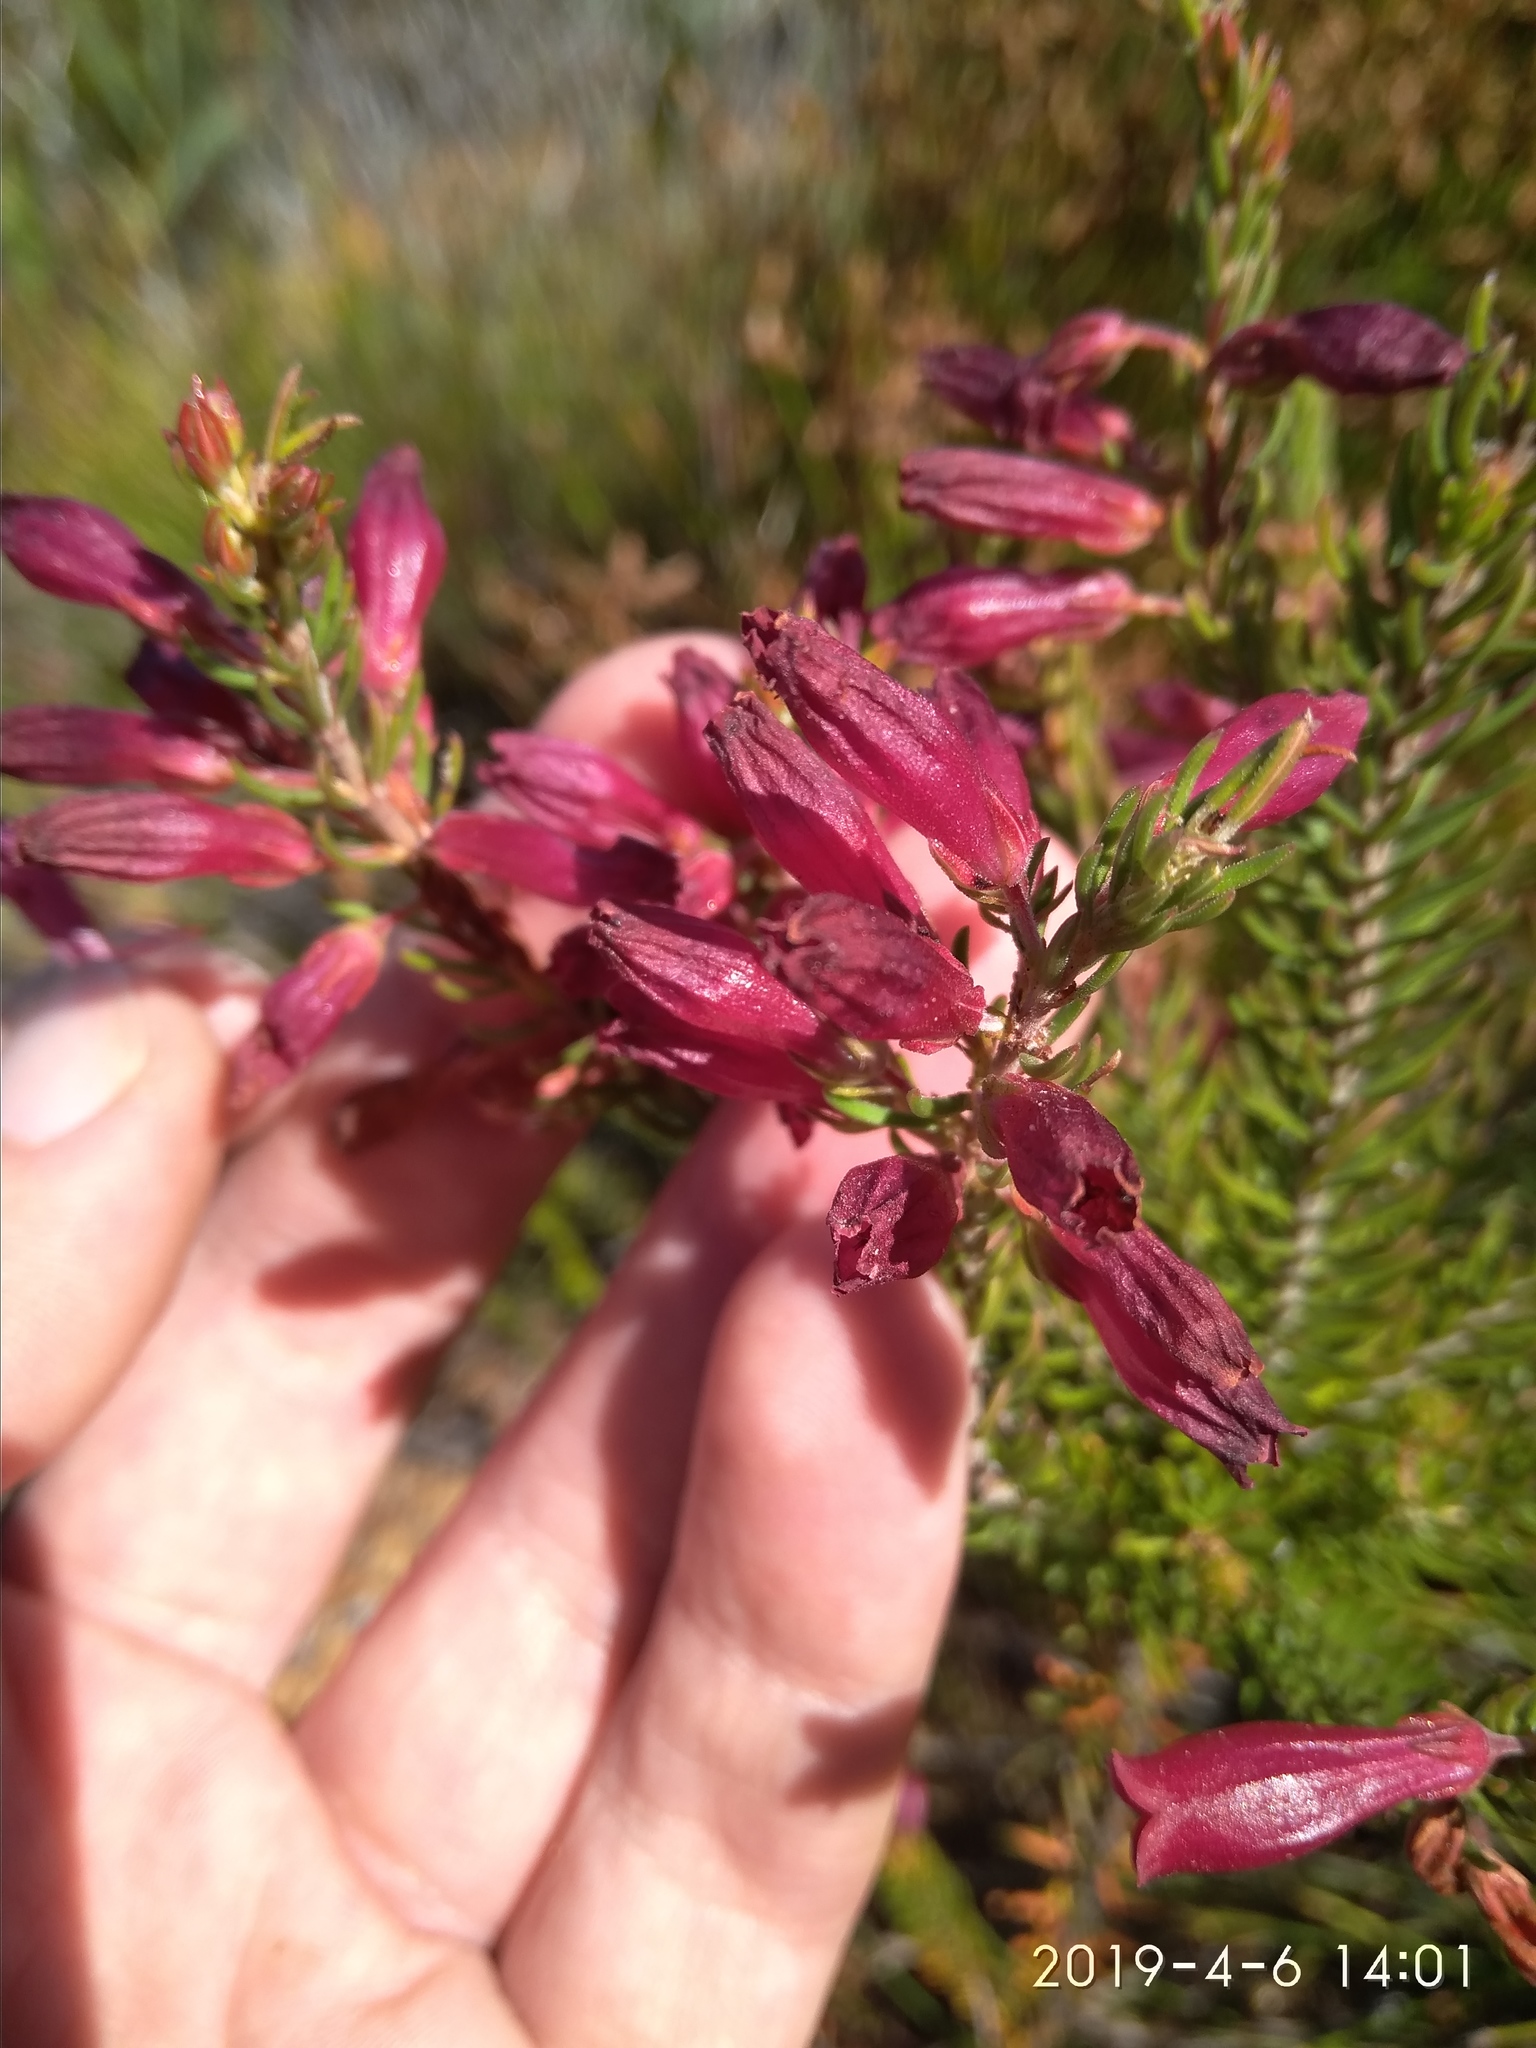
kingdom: Plantae
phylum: Tracheophyta
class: Magnoliopsida
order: Ericales
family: Ericaceae
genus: Erica
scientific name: Erica
